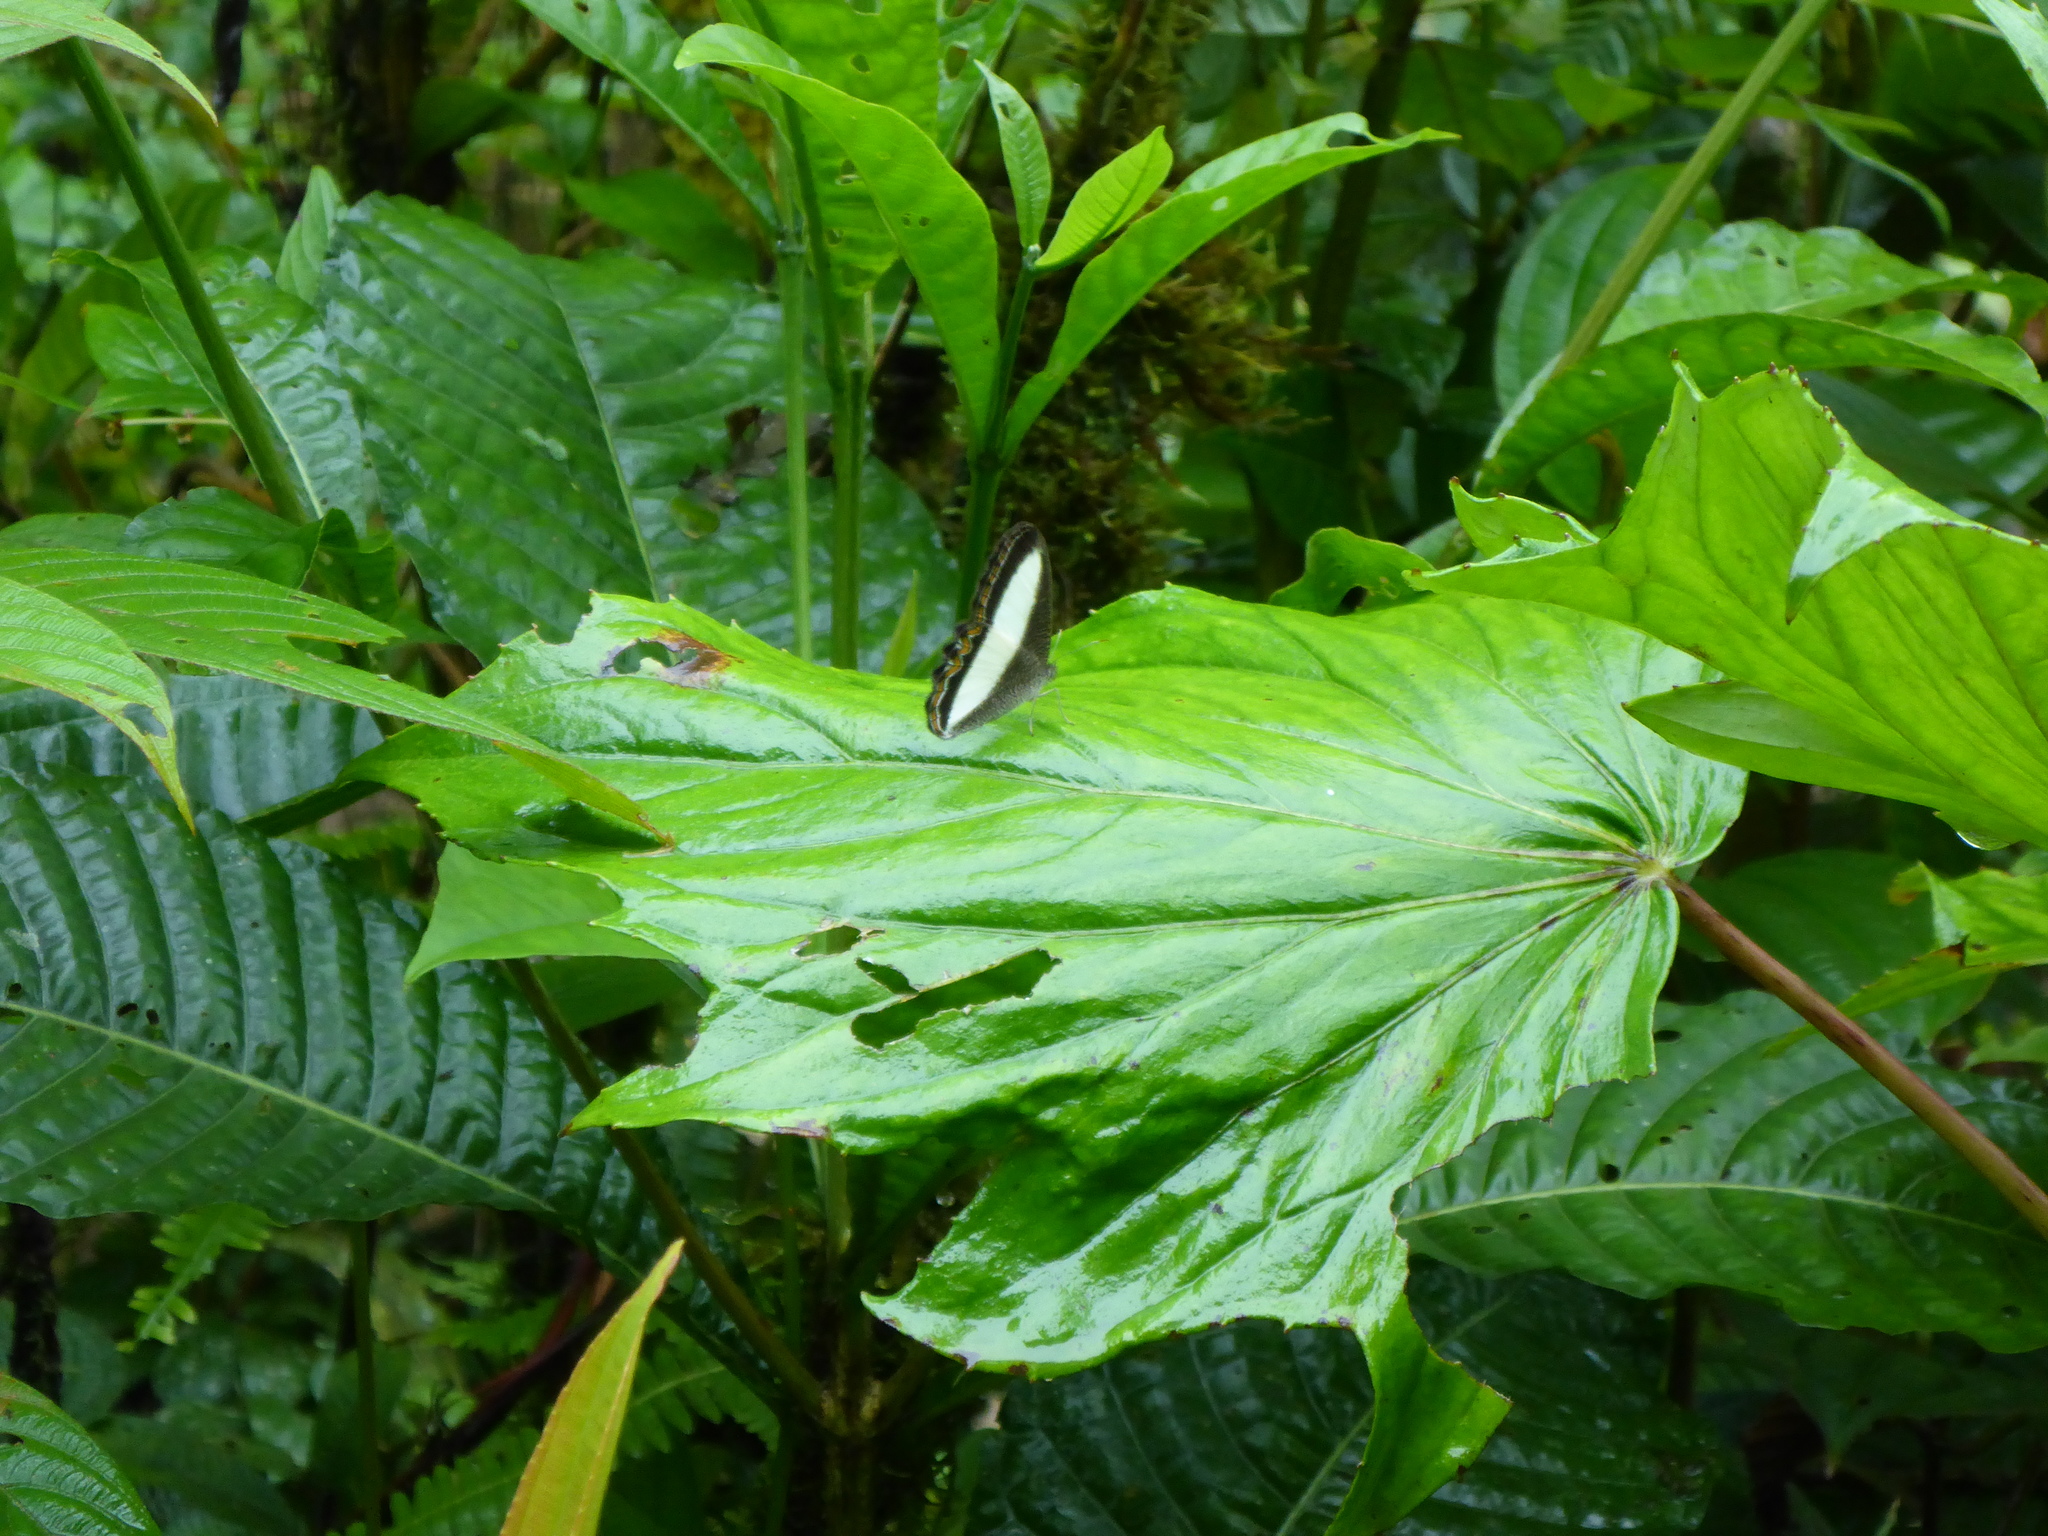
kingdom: Animalia
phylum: Arthropoda
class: Insecta
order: Lepidoptera
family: Nymphalidae
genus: Oressinoma
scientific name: Oressinoma typhla
